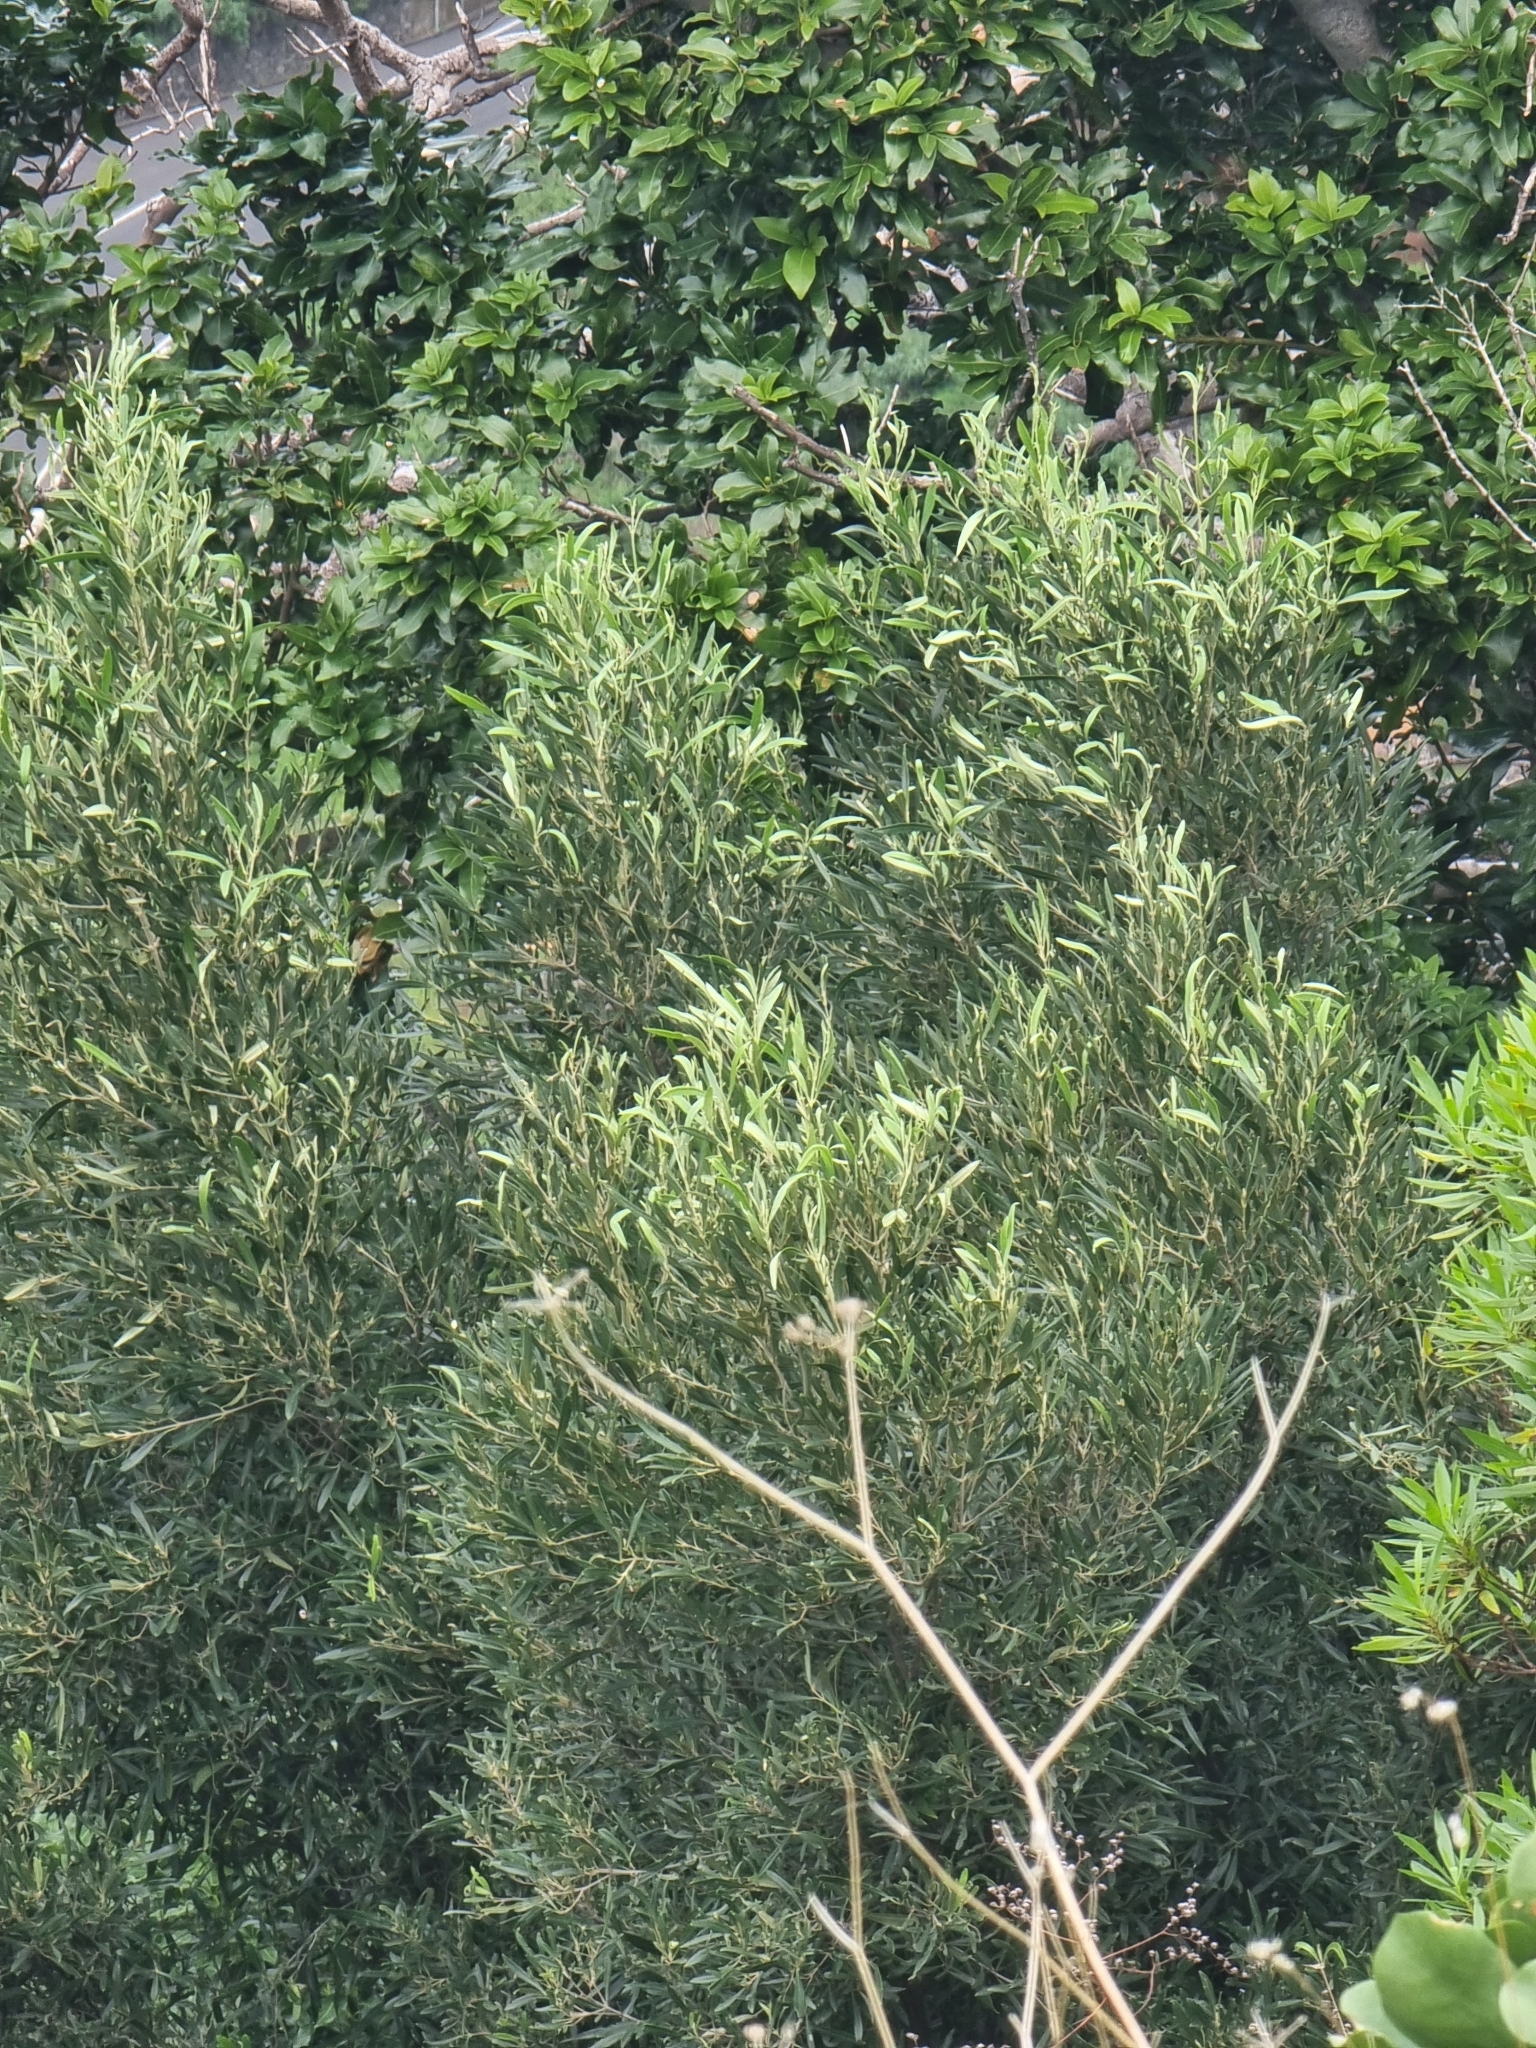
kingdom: Plantae
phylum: Tracheophyta
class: Magnoliopsida
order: Lamiales
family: Oleaceae
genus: Olea
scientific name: Olea europaea
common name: Olive
